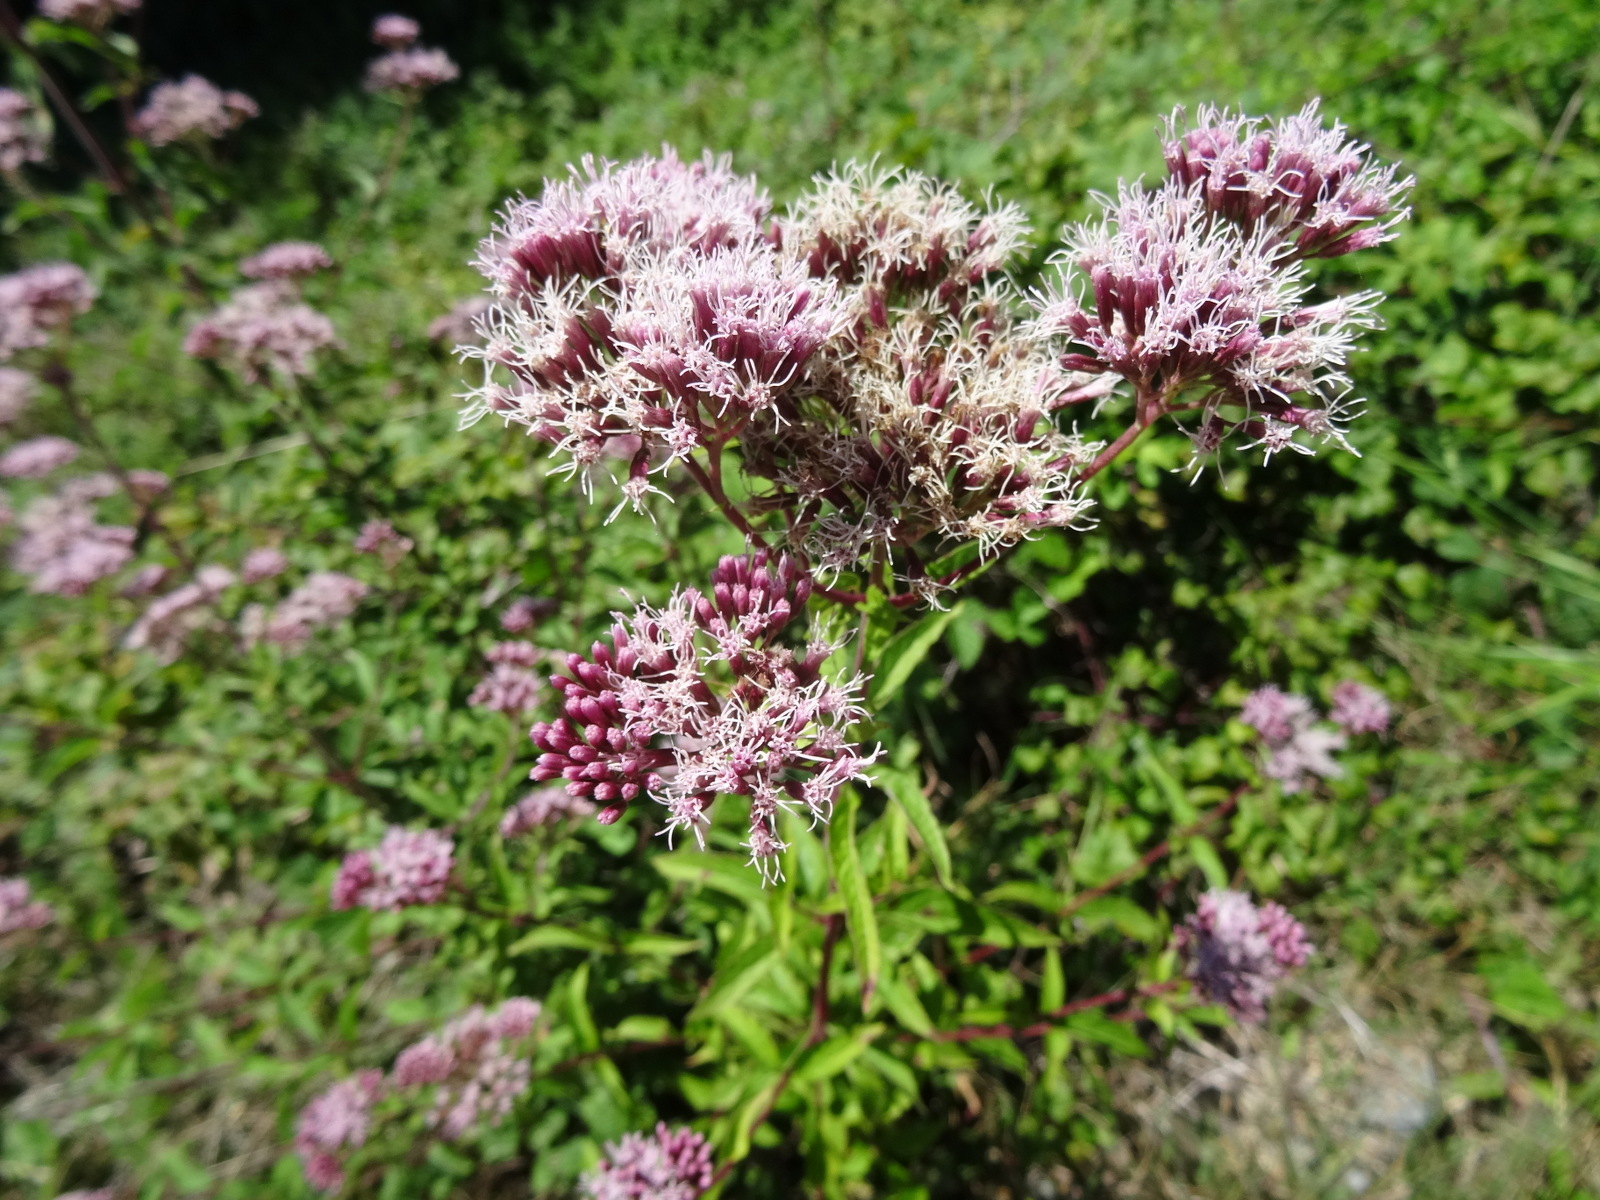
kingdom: Plantae
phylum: Tracheophyta
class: Magnoliopsida
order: Asterales
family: Asteraceae
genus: Eupatorium
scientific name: Eupatorium cannabinum
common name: Hemp-agrimony
